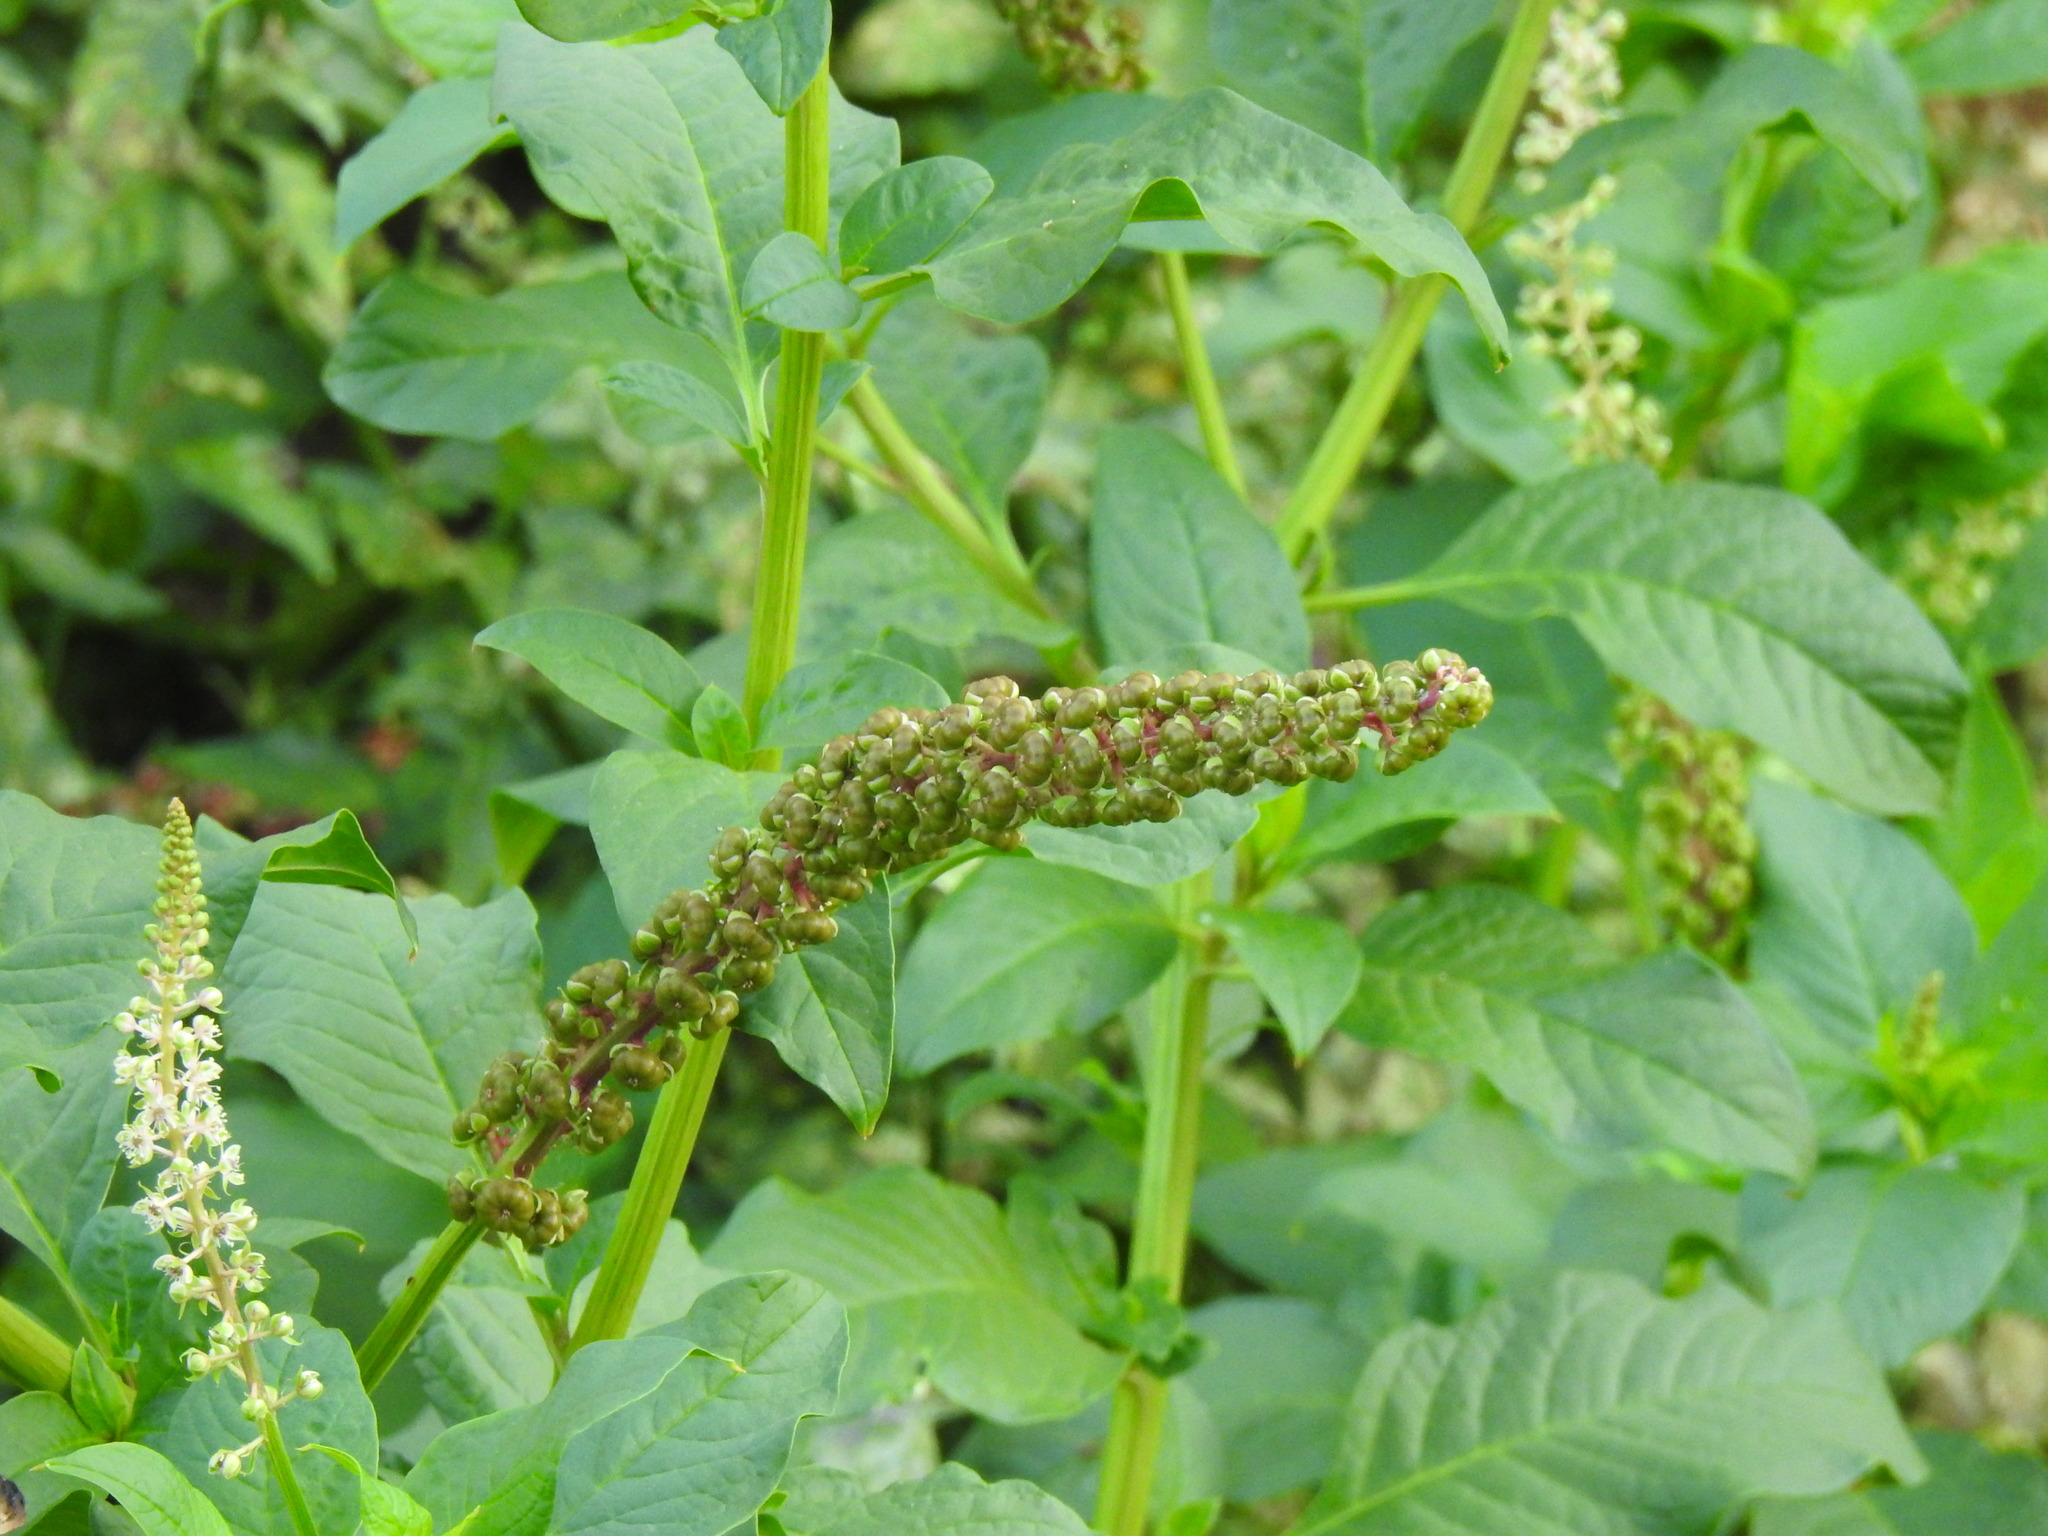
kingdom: Plantae
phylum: Tracheophyta
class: Magnoliopsida
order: Caryophyllales
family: Phytolaccaceae
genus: Phytolacca
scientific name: Phytolacca heterotepala
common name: Mexican pokeweed
